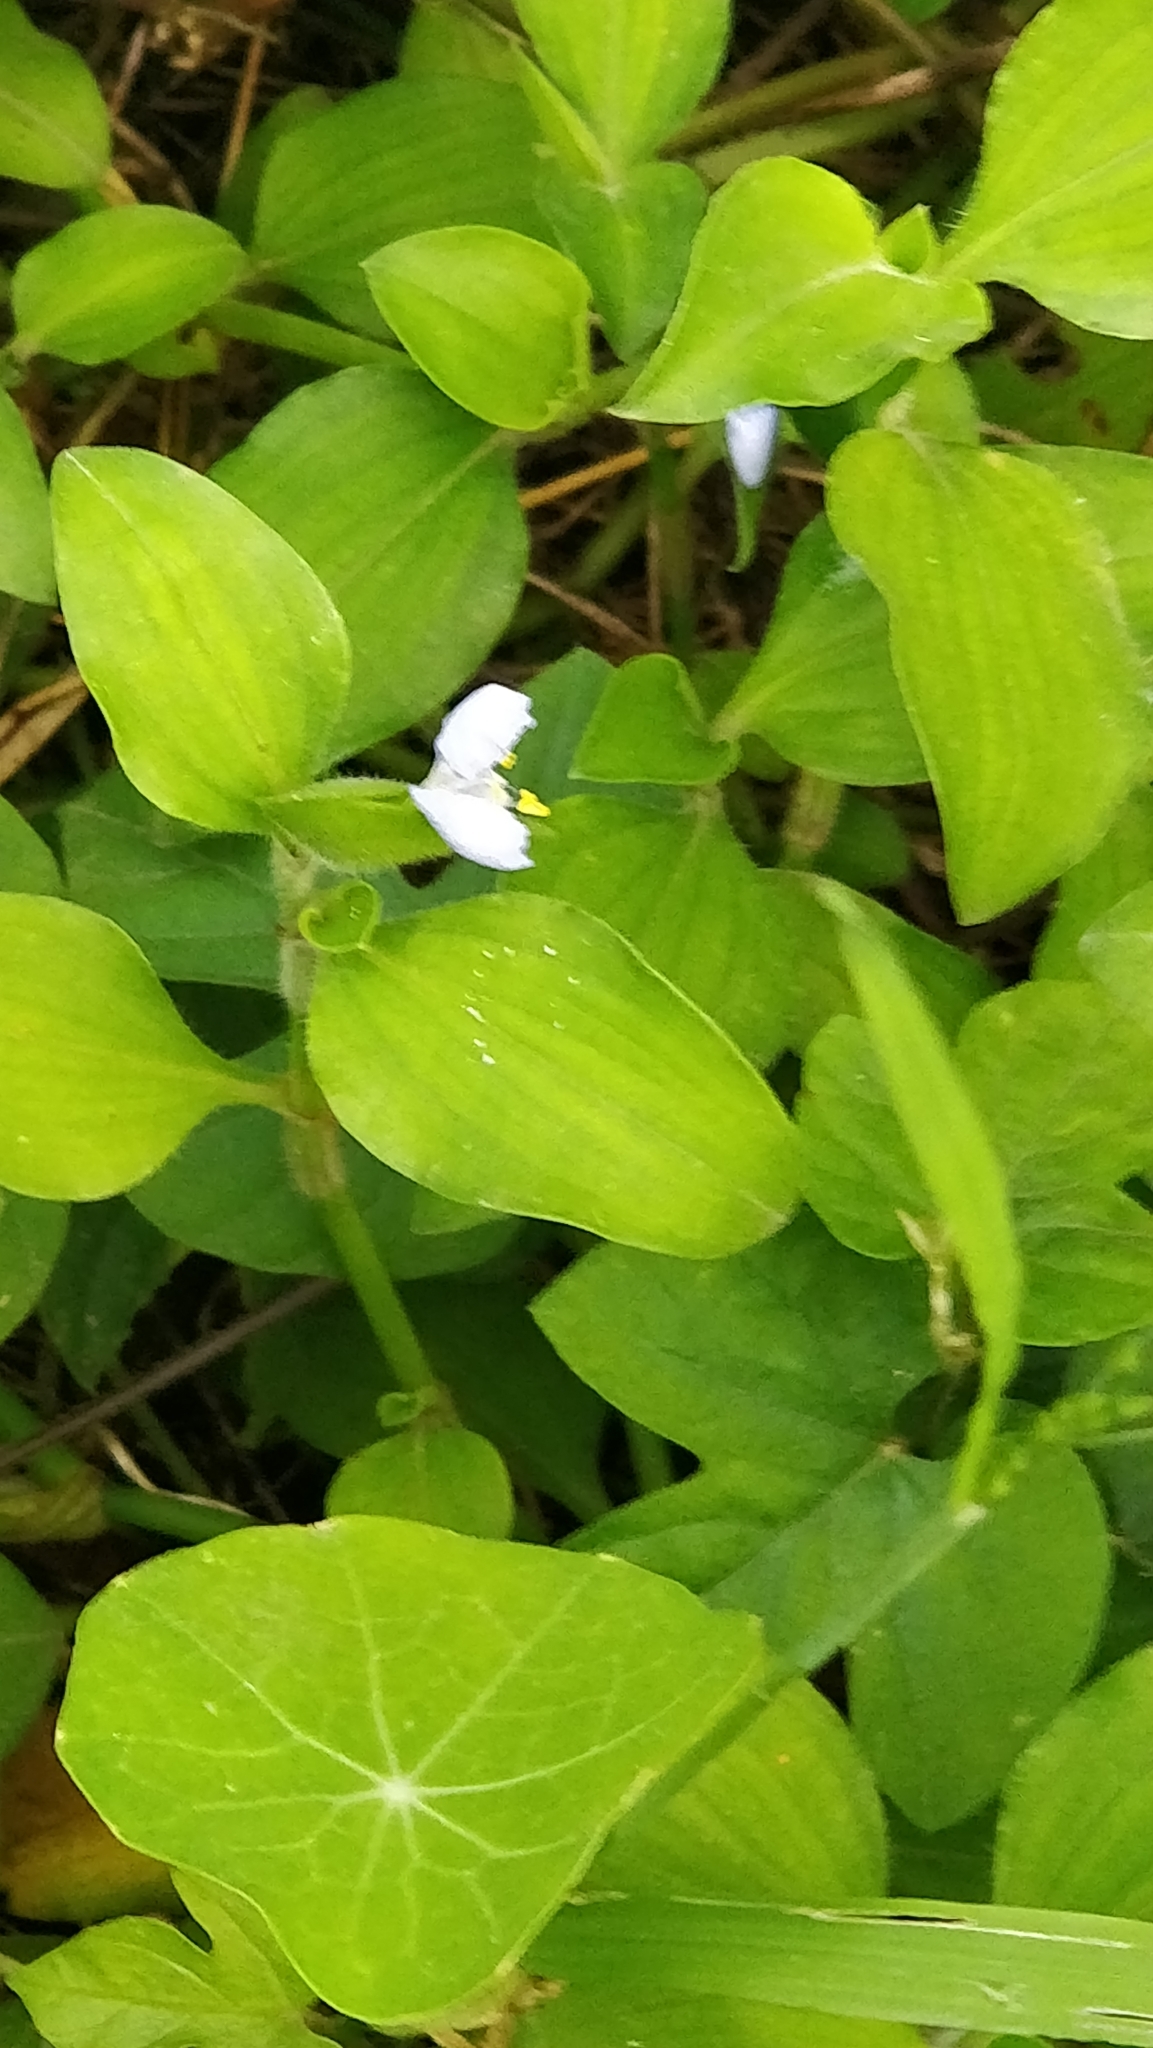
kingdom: Plantae
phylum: Tracheophyta
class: Liliopsida
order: Commelinales
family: Commelinaceae
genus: Commelina
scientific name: Commelina benghalensis
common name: Jio
